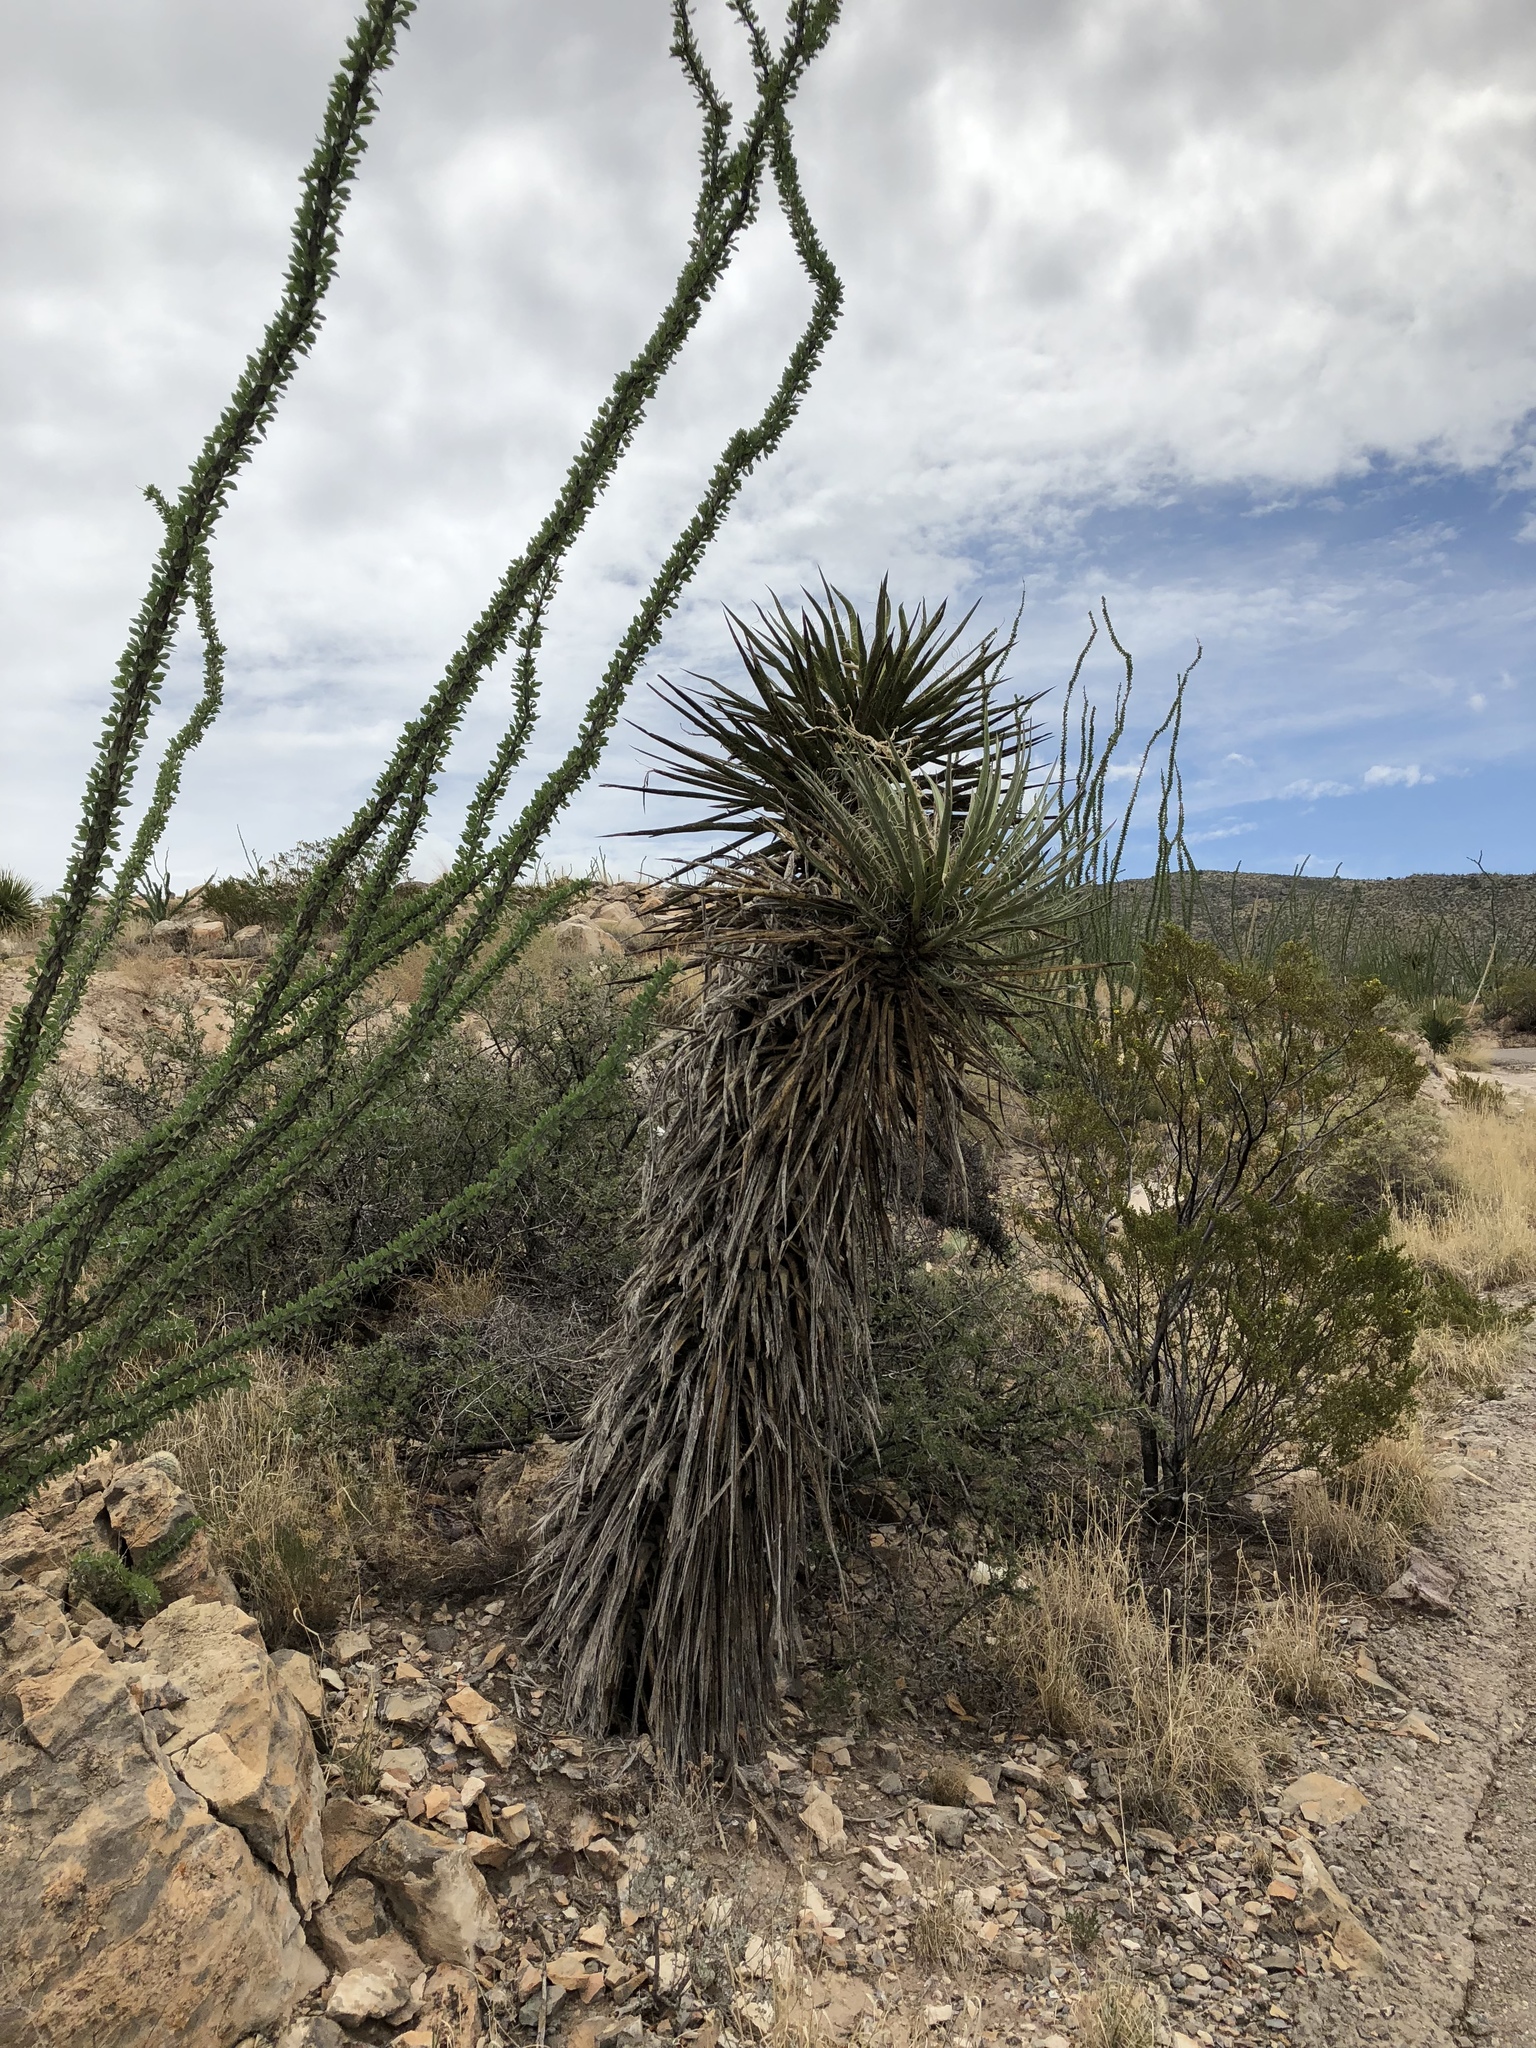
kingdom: Plantae
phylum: Tracheophyta
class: Liliopsida
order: Asparagales
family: Asparagaceae
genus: Yucca
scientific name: Yucca treculiana
